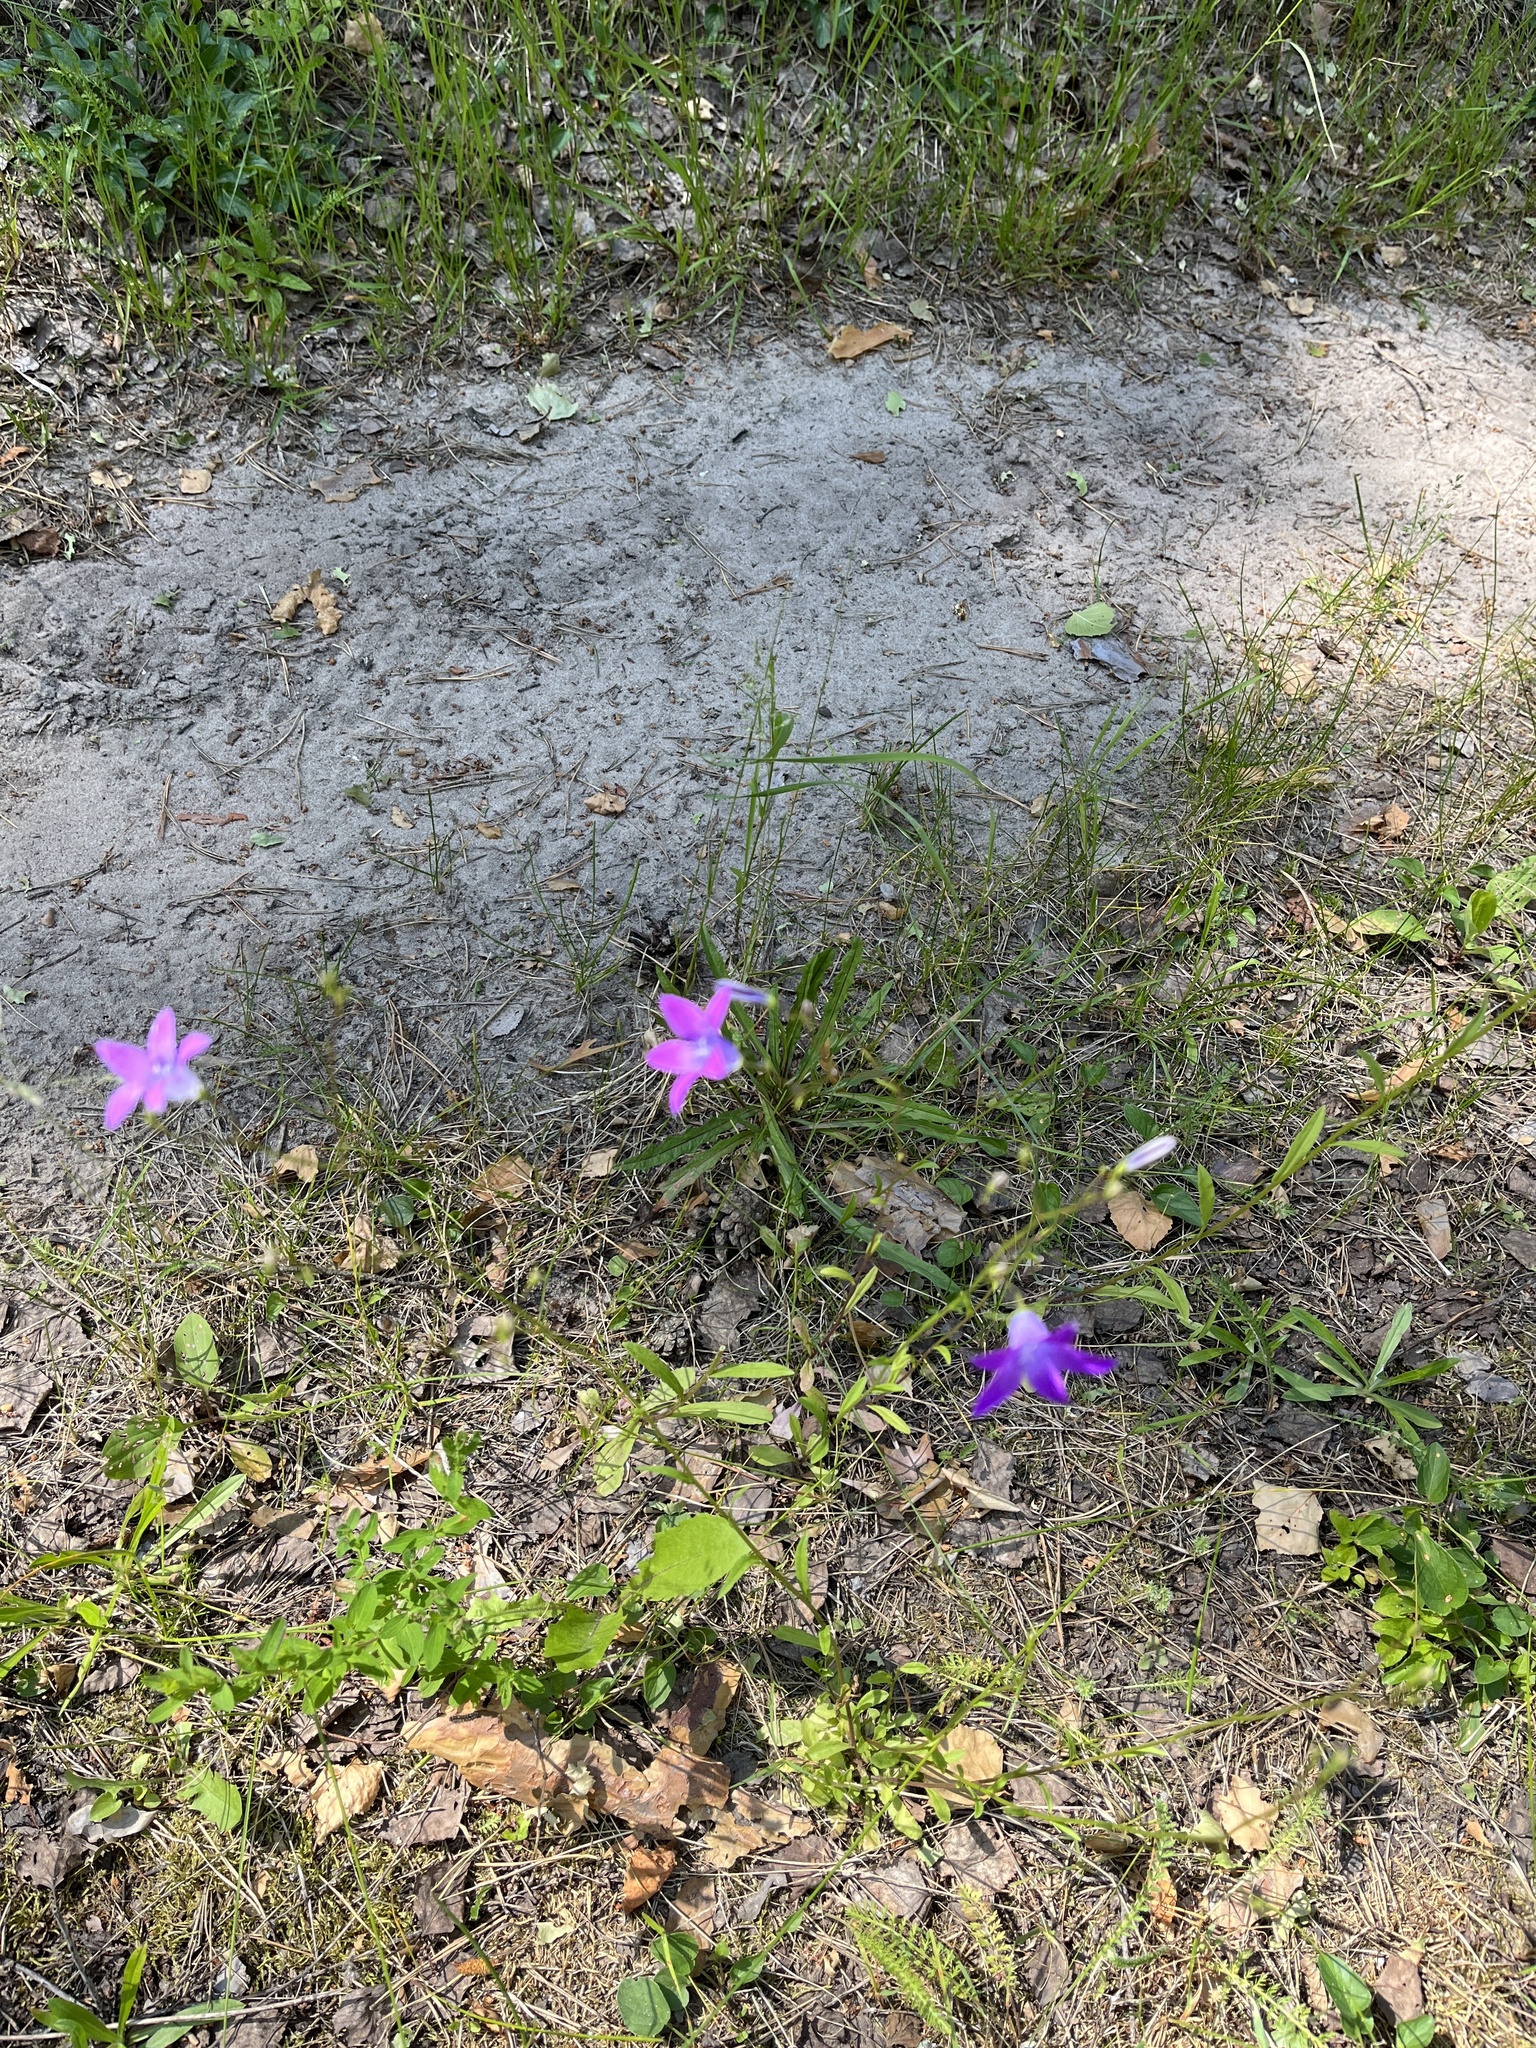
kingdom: Plantae
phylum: Tracheophyta
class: Magnoliopsida
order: Asterales
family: Campanulaceae
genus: Campanula
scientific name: Campanula patula
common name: Spreading bellflower
